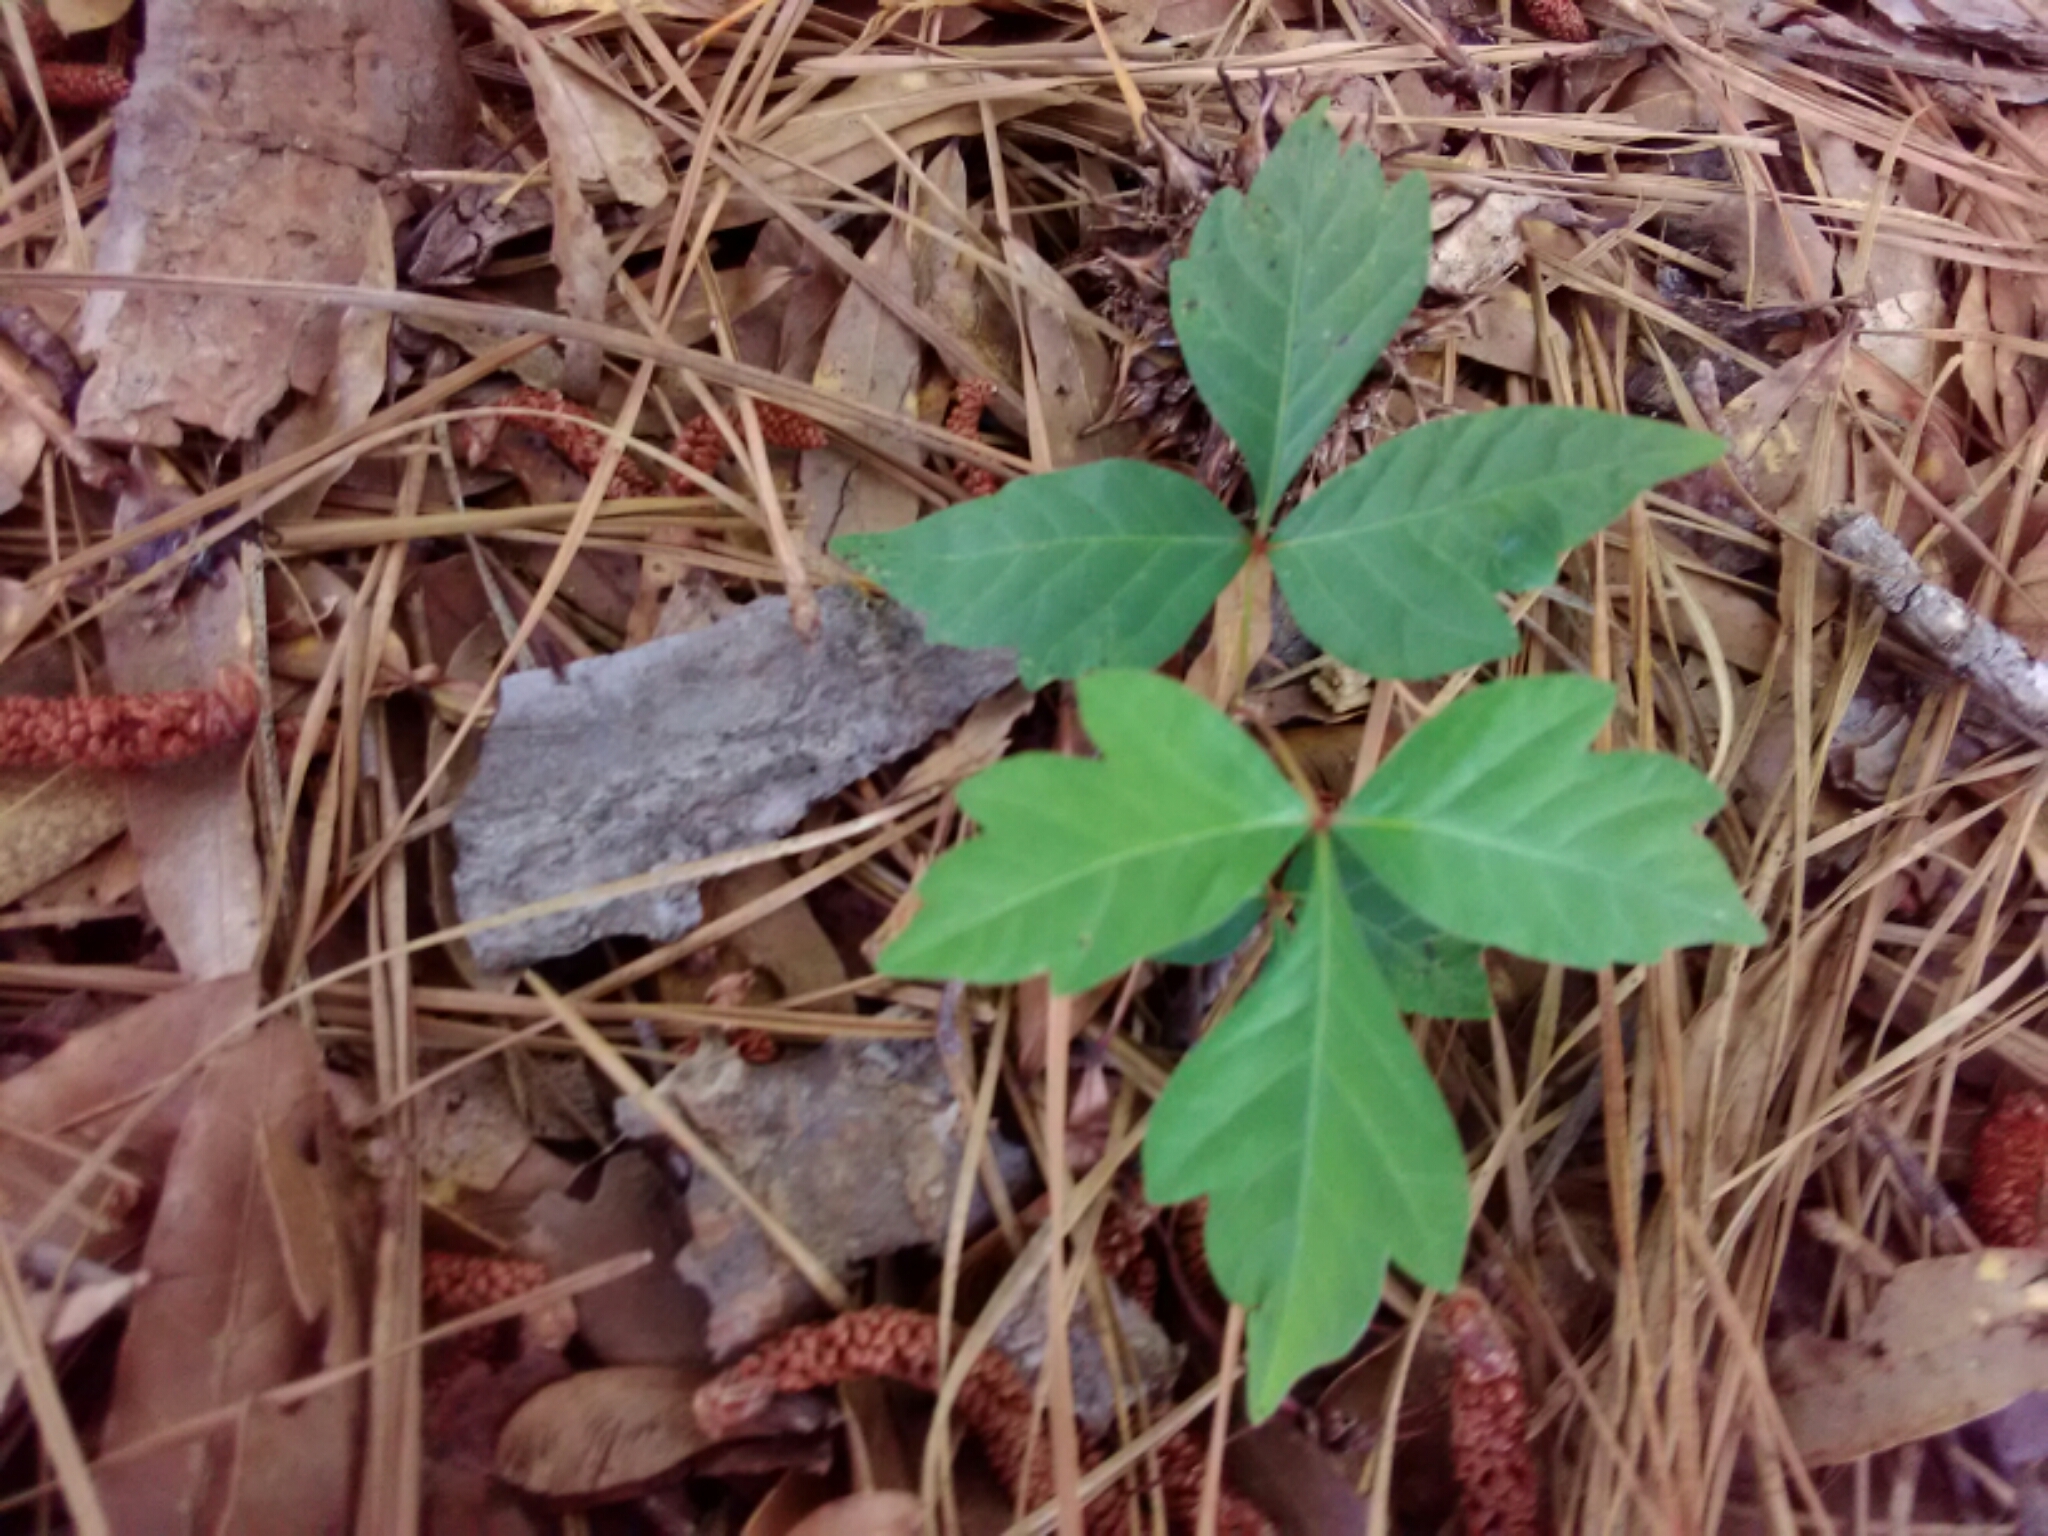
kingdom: Plantae
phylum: Tracheophyta
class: Magnoliopsida
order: Sapindales
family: Anacardiaceae
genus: Toxicodendron
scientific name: Toxicodendron radicans
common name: Poison ivy
